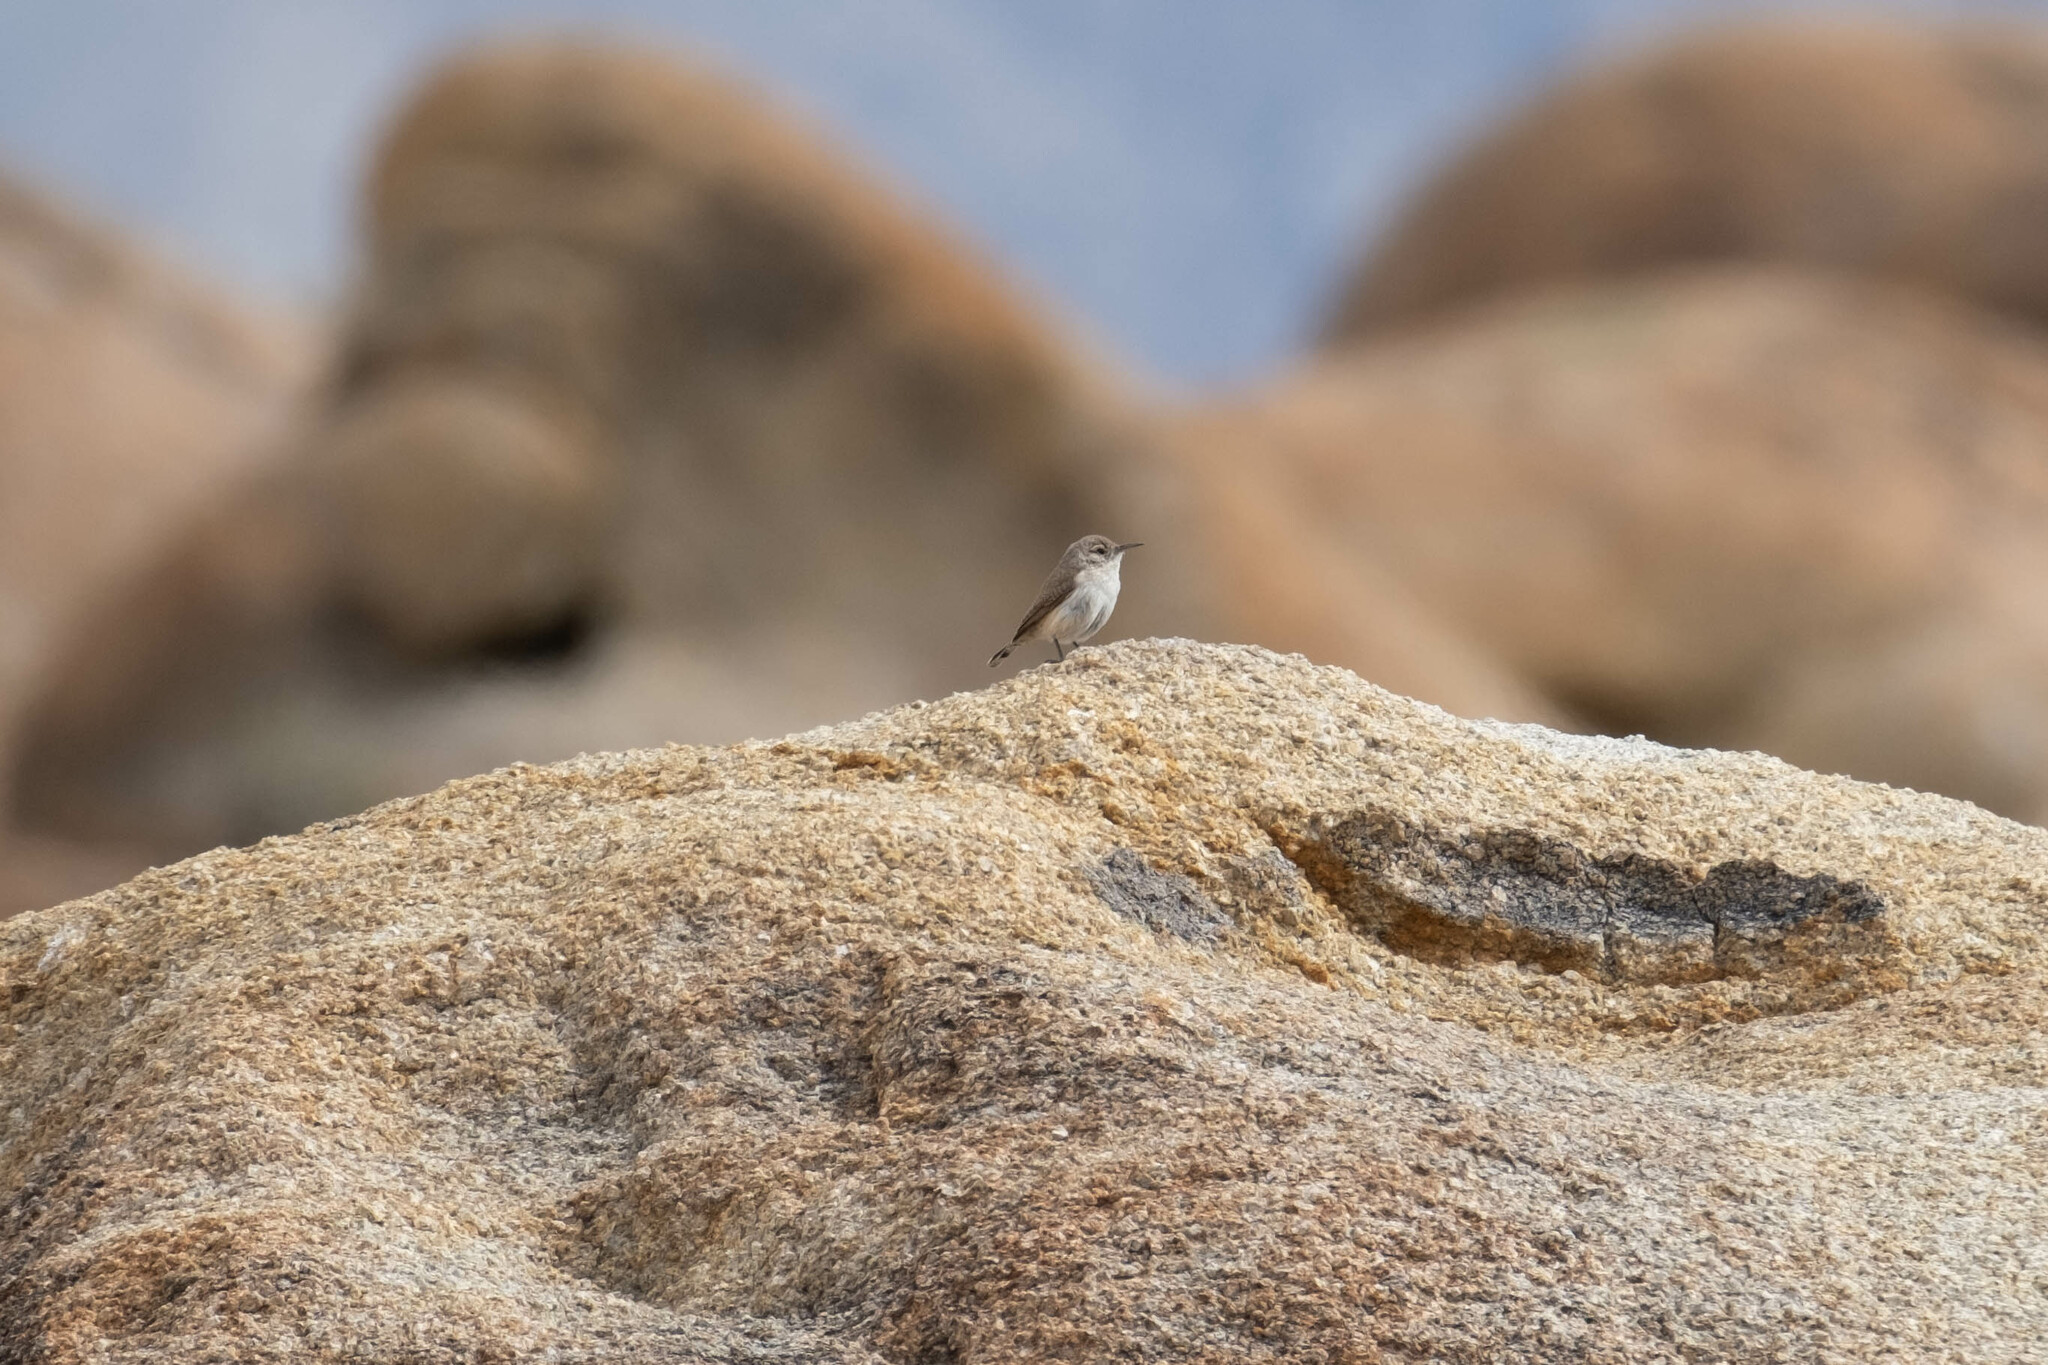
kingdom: Animalia
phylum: Chordata
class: Aves
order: Passeriformes
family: Troglodytidae
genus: Salpinctes
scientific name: Salpinctes obsoletus
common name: Rock wren
